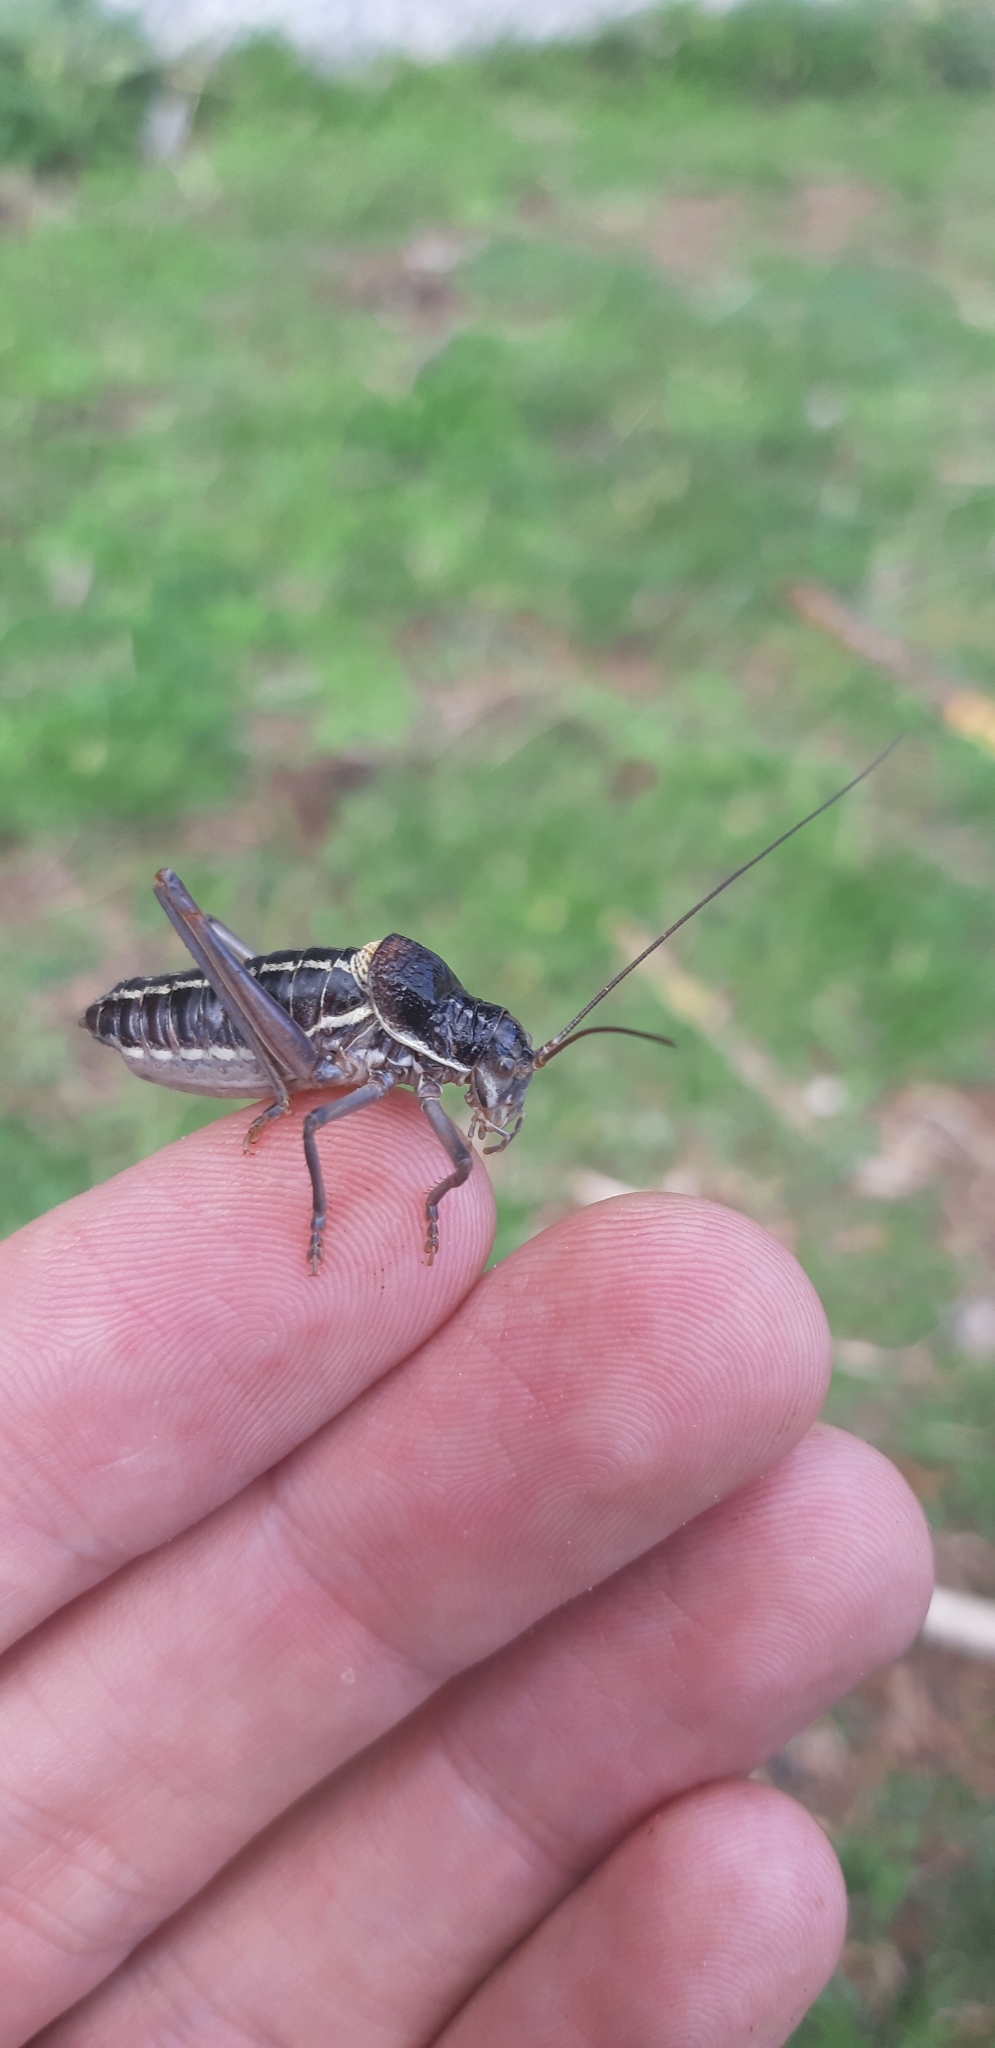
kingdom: Animalia
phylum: Arthropoda
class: Insecta
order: Orthoptera
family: Tettigoniidae
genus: Ephippiger
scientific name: Ephippiger ruffoi
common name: Pygmy saddle bush-cricket
